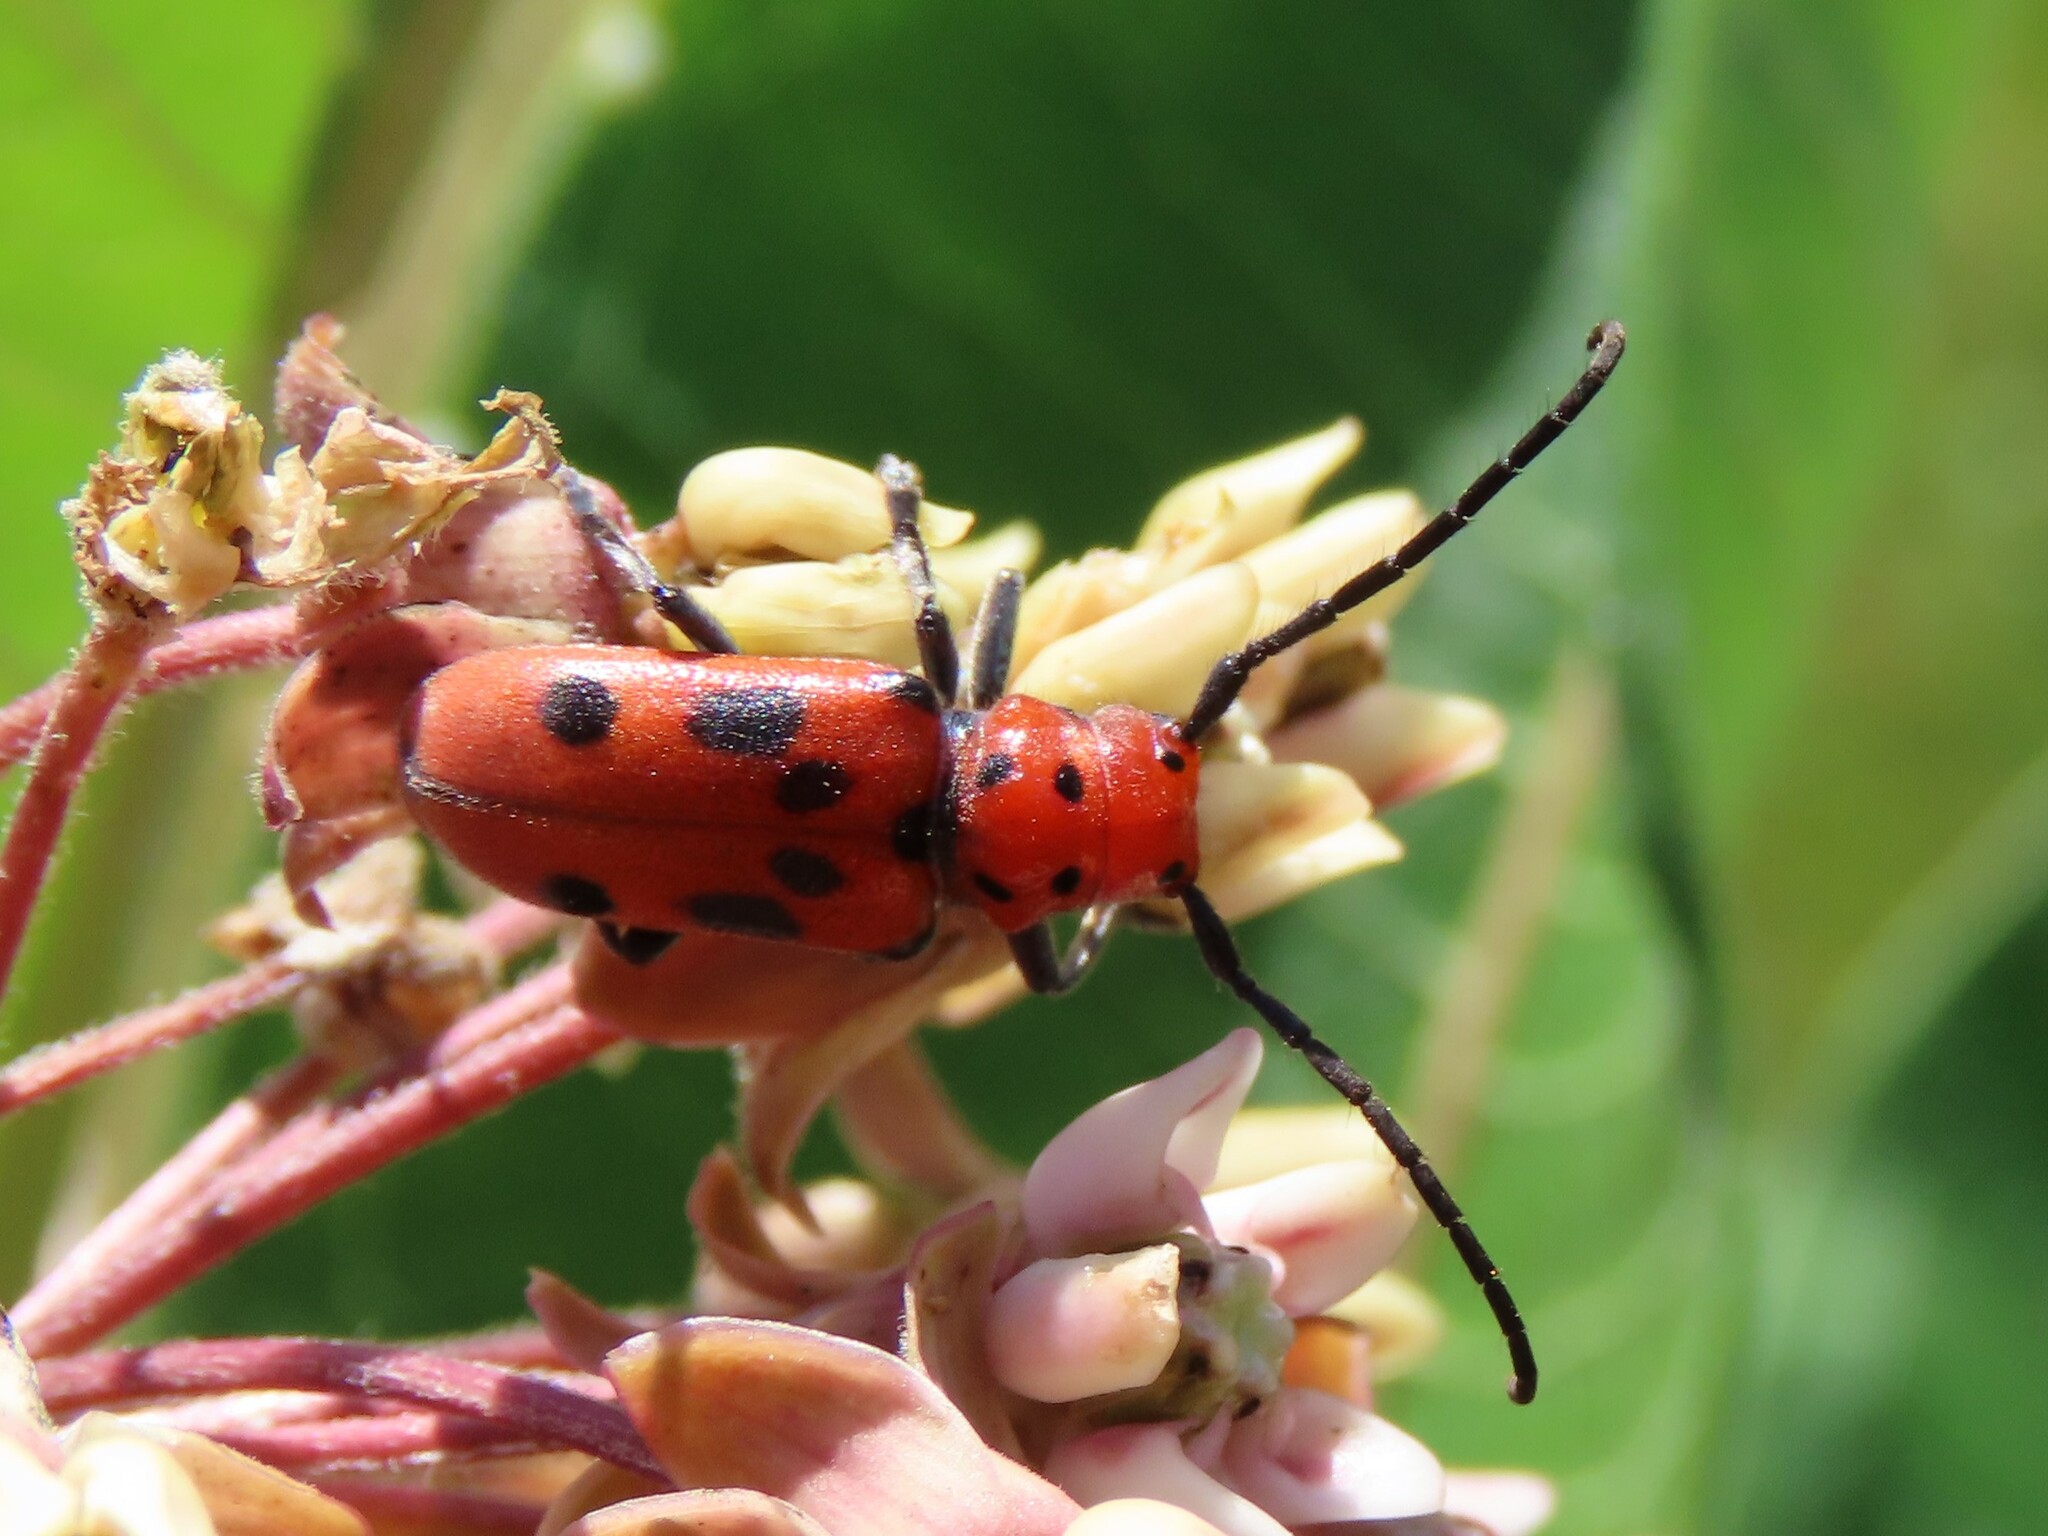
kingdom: Animalia
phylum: Arthropoda
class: Insecta
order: Coleoptera
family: Cerambycidae
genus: Tetraopes
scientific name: Tetraopes tetrophthalmus
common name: Red milkweed beetle
